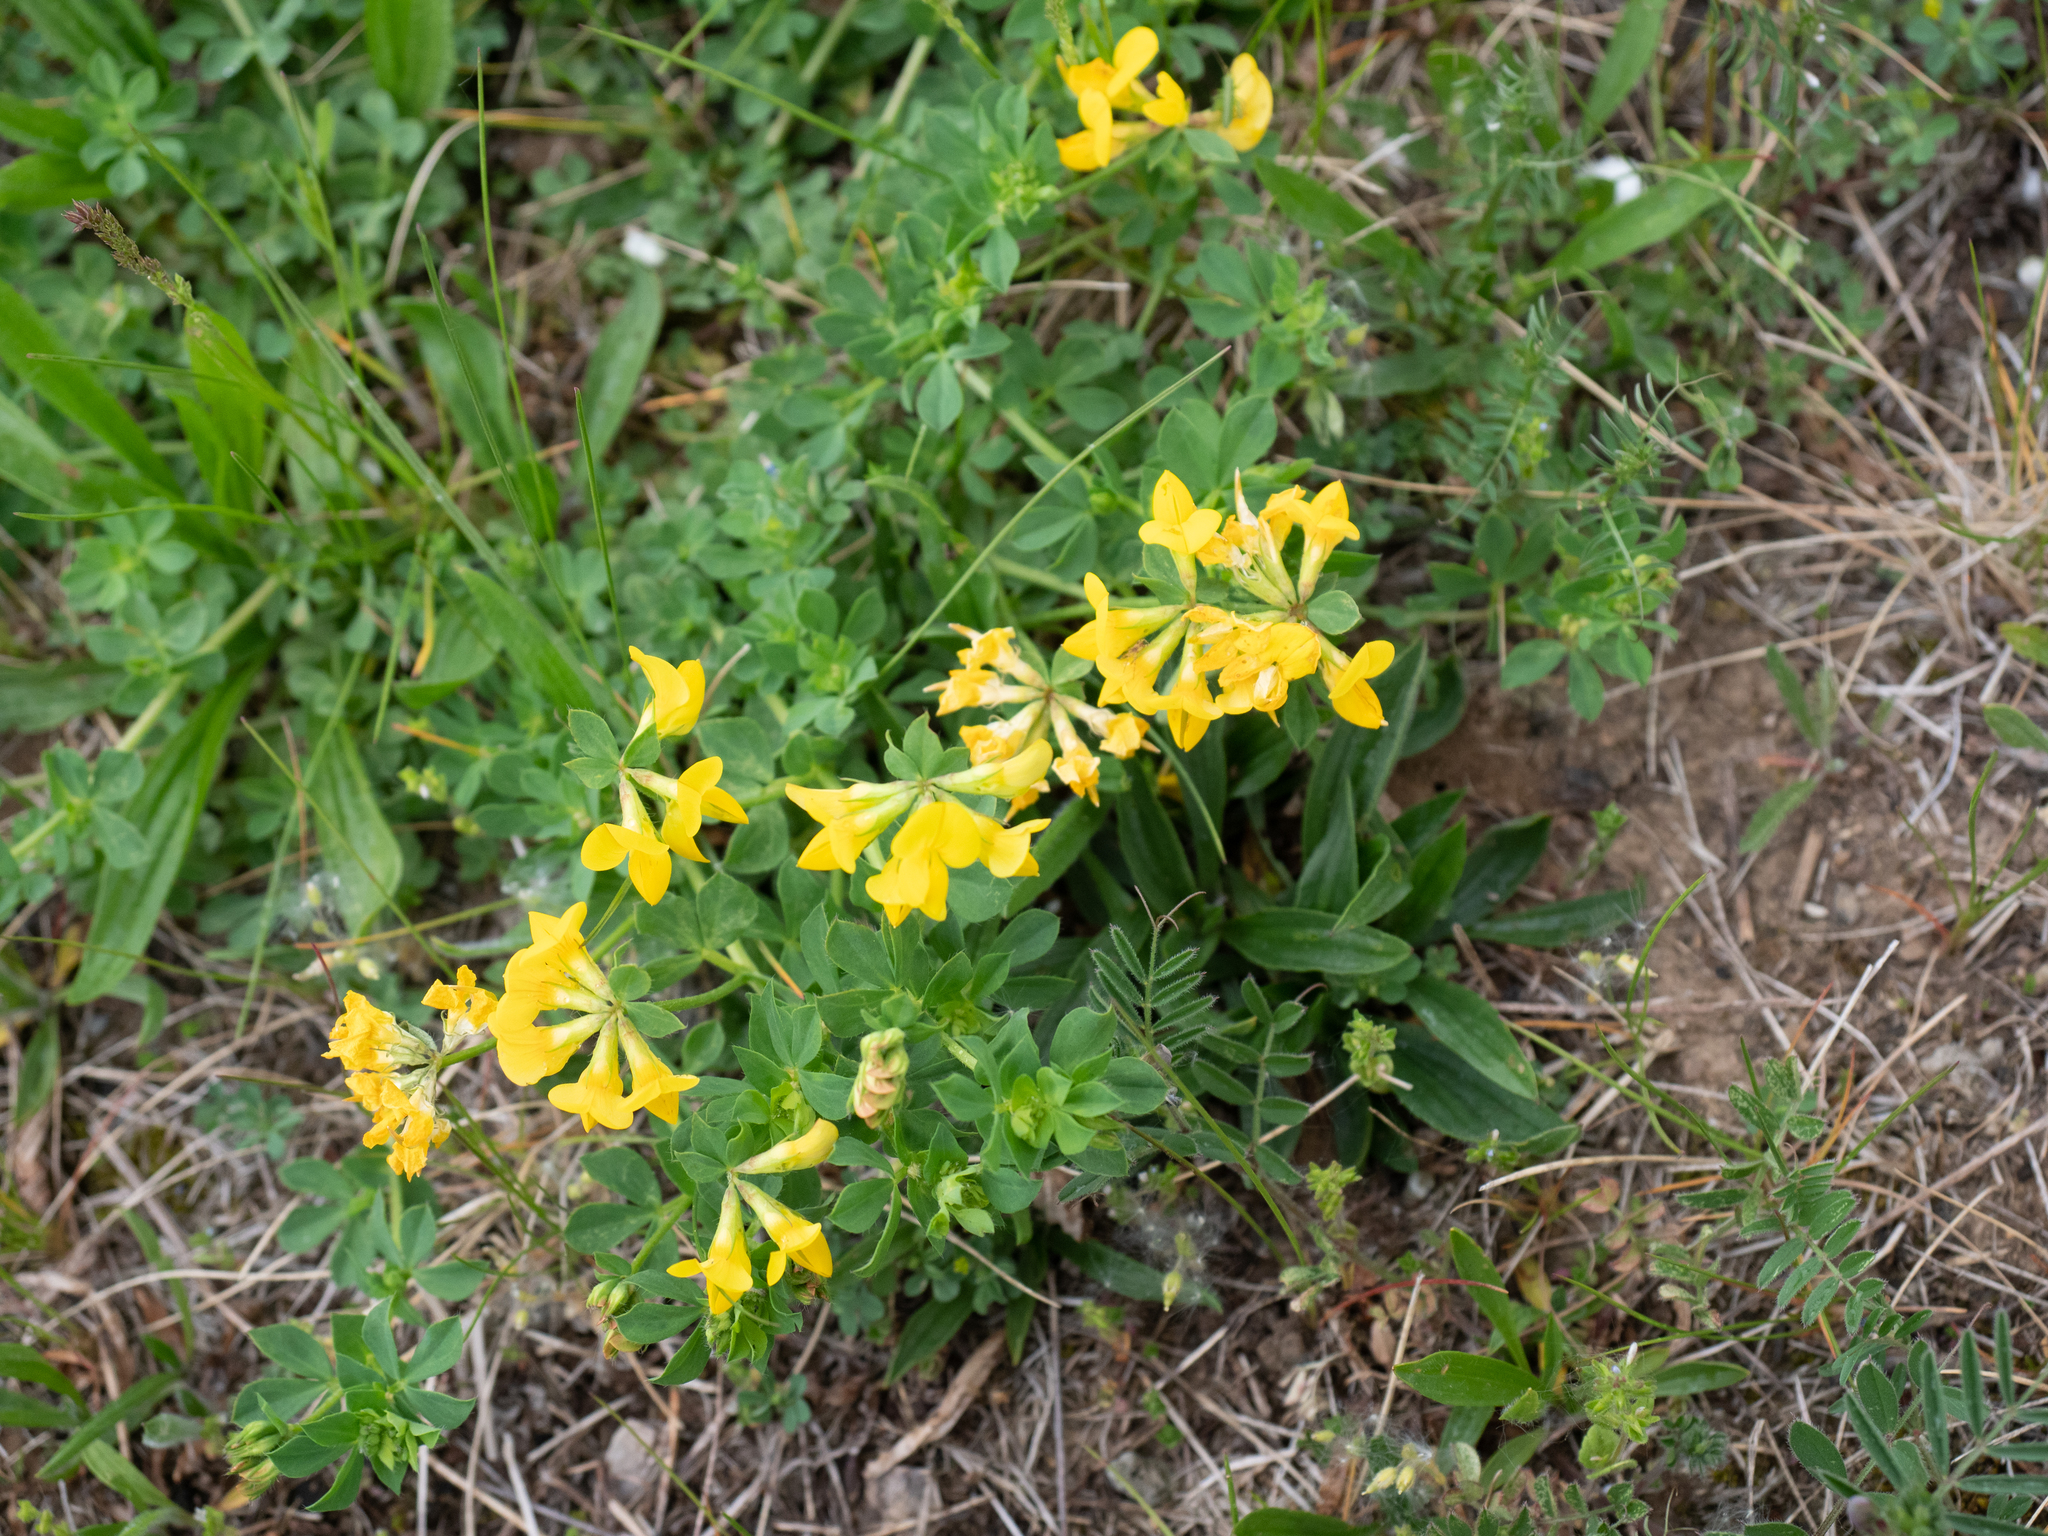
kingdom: Plantae
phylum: Tracheophyta
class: Magnoliopsida
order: Fabales
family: Fabaceae
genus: Lotus
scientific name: Lotus corniculatus
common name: Common bird's-foot-trefoil
